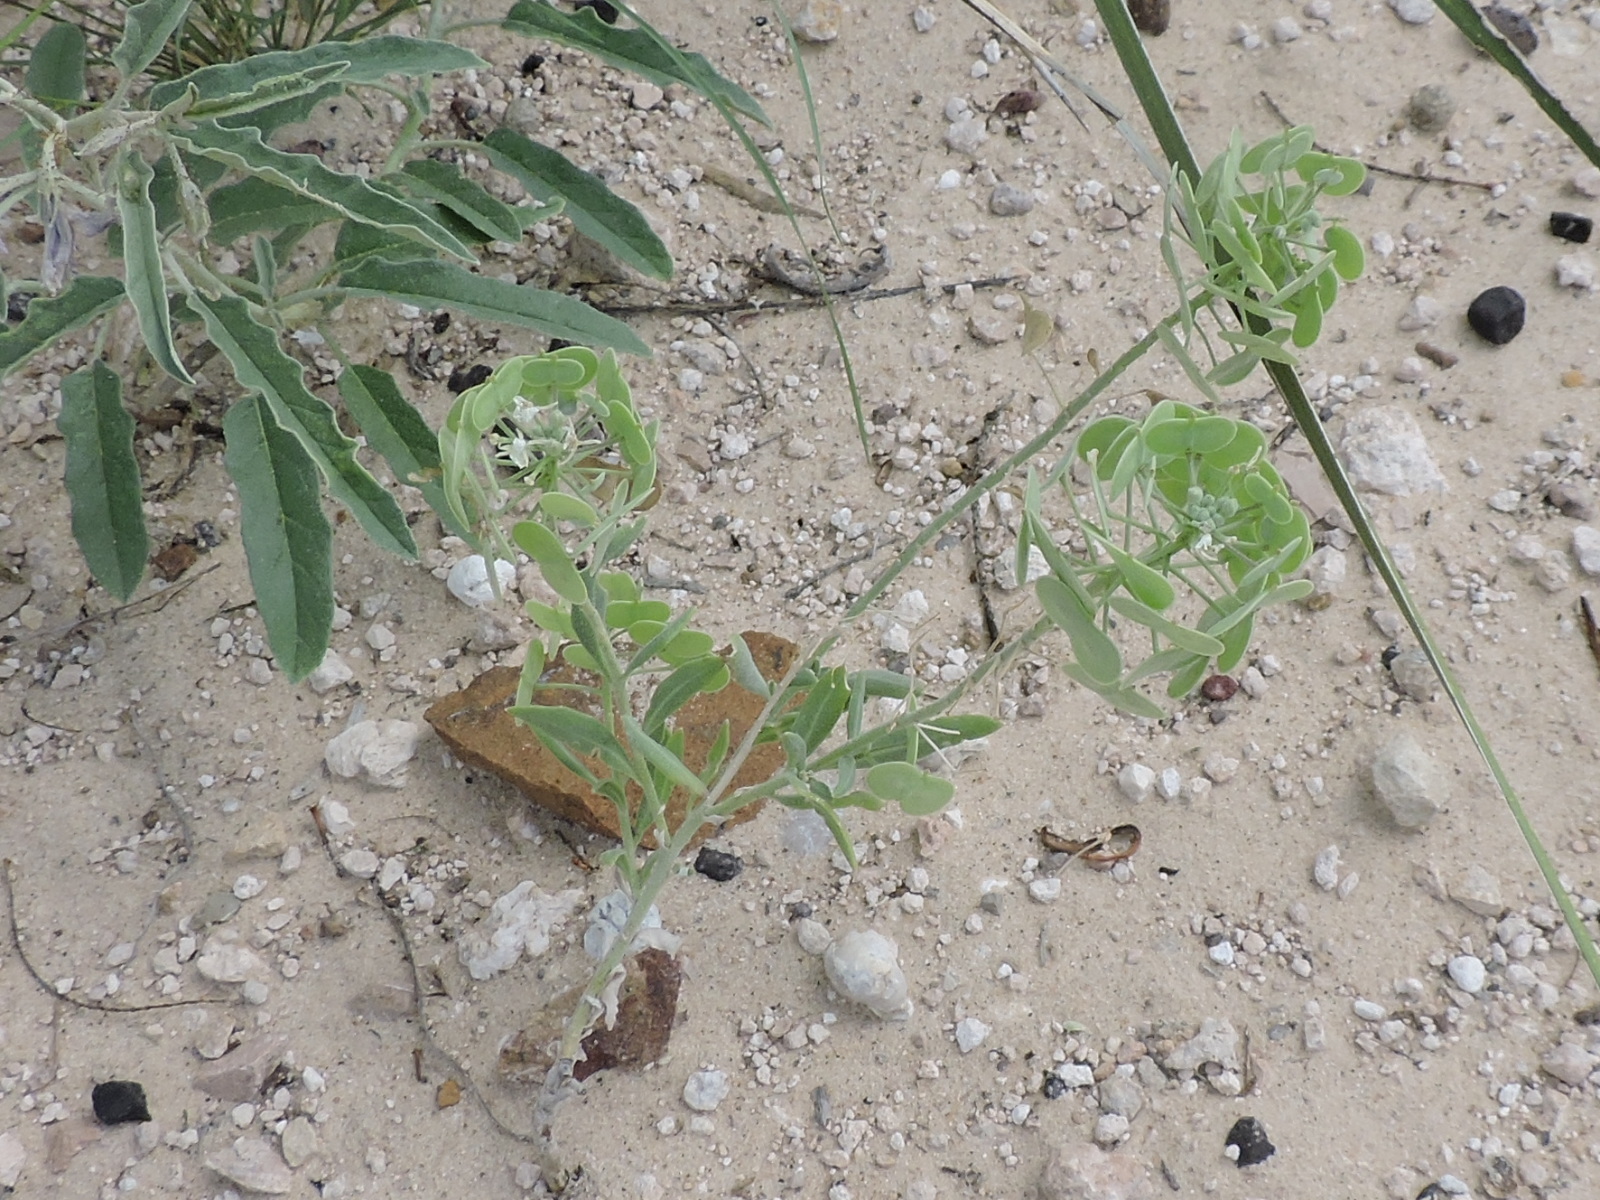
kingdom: Plantae
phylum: Tracheophyta
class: Magnoliopsida
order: Brassicales
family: Brassicaceae
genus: Dimorphocarpa
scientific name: Dimorphocarpa wislizenii
